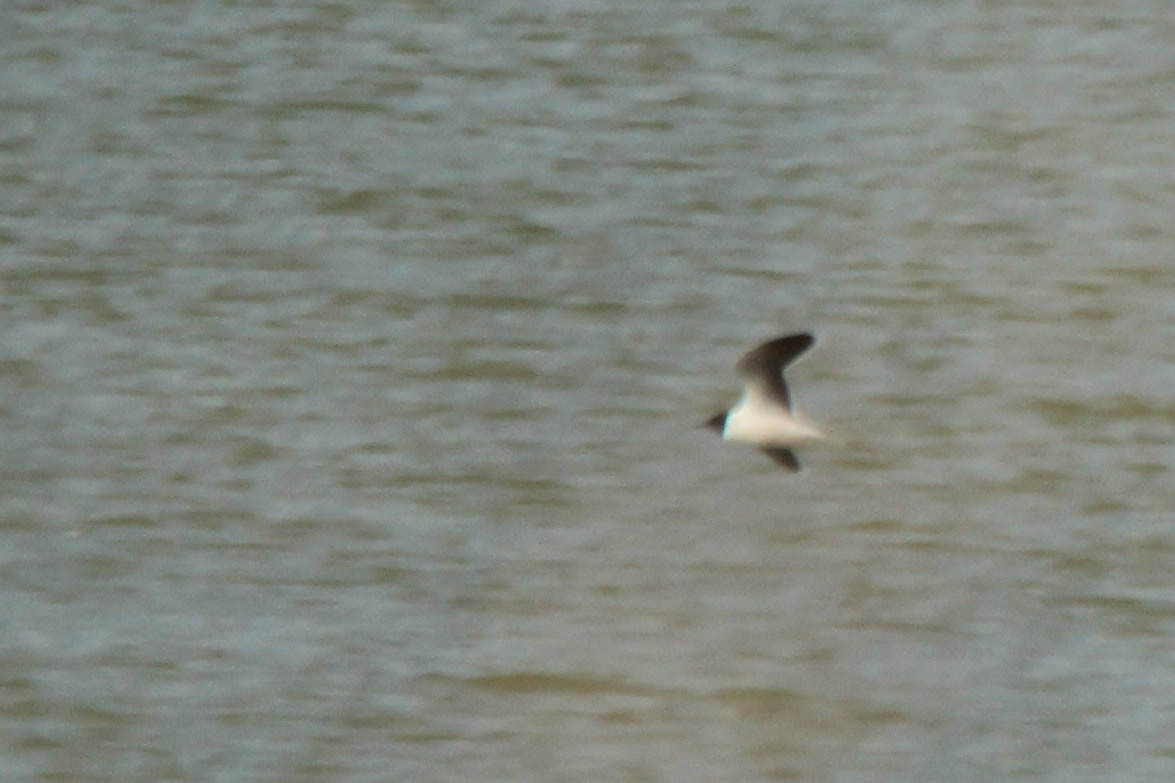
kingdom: Animalia
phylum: Chordata
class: Aves
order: Charadriiformes
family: Laridae
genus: Hydrocoloeus
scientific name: Hydrocoloeus minutus
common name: Little gull
